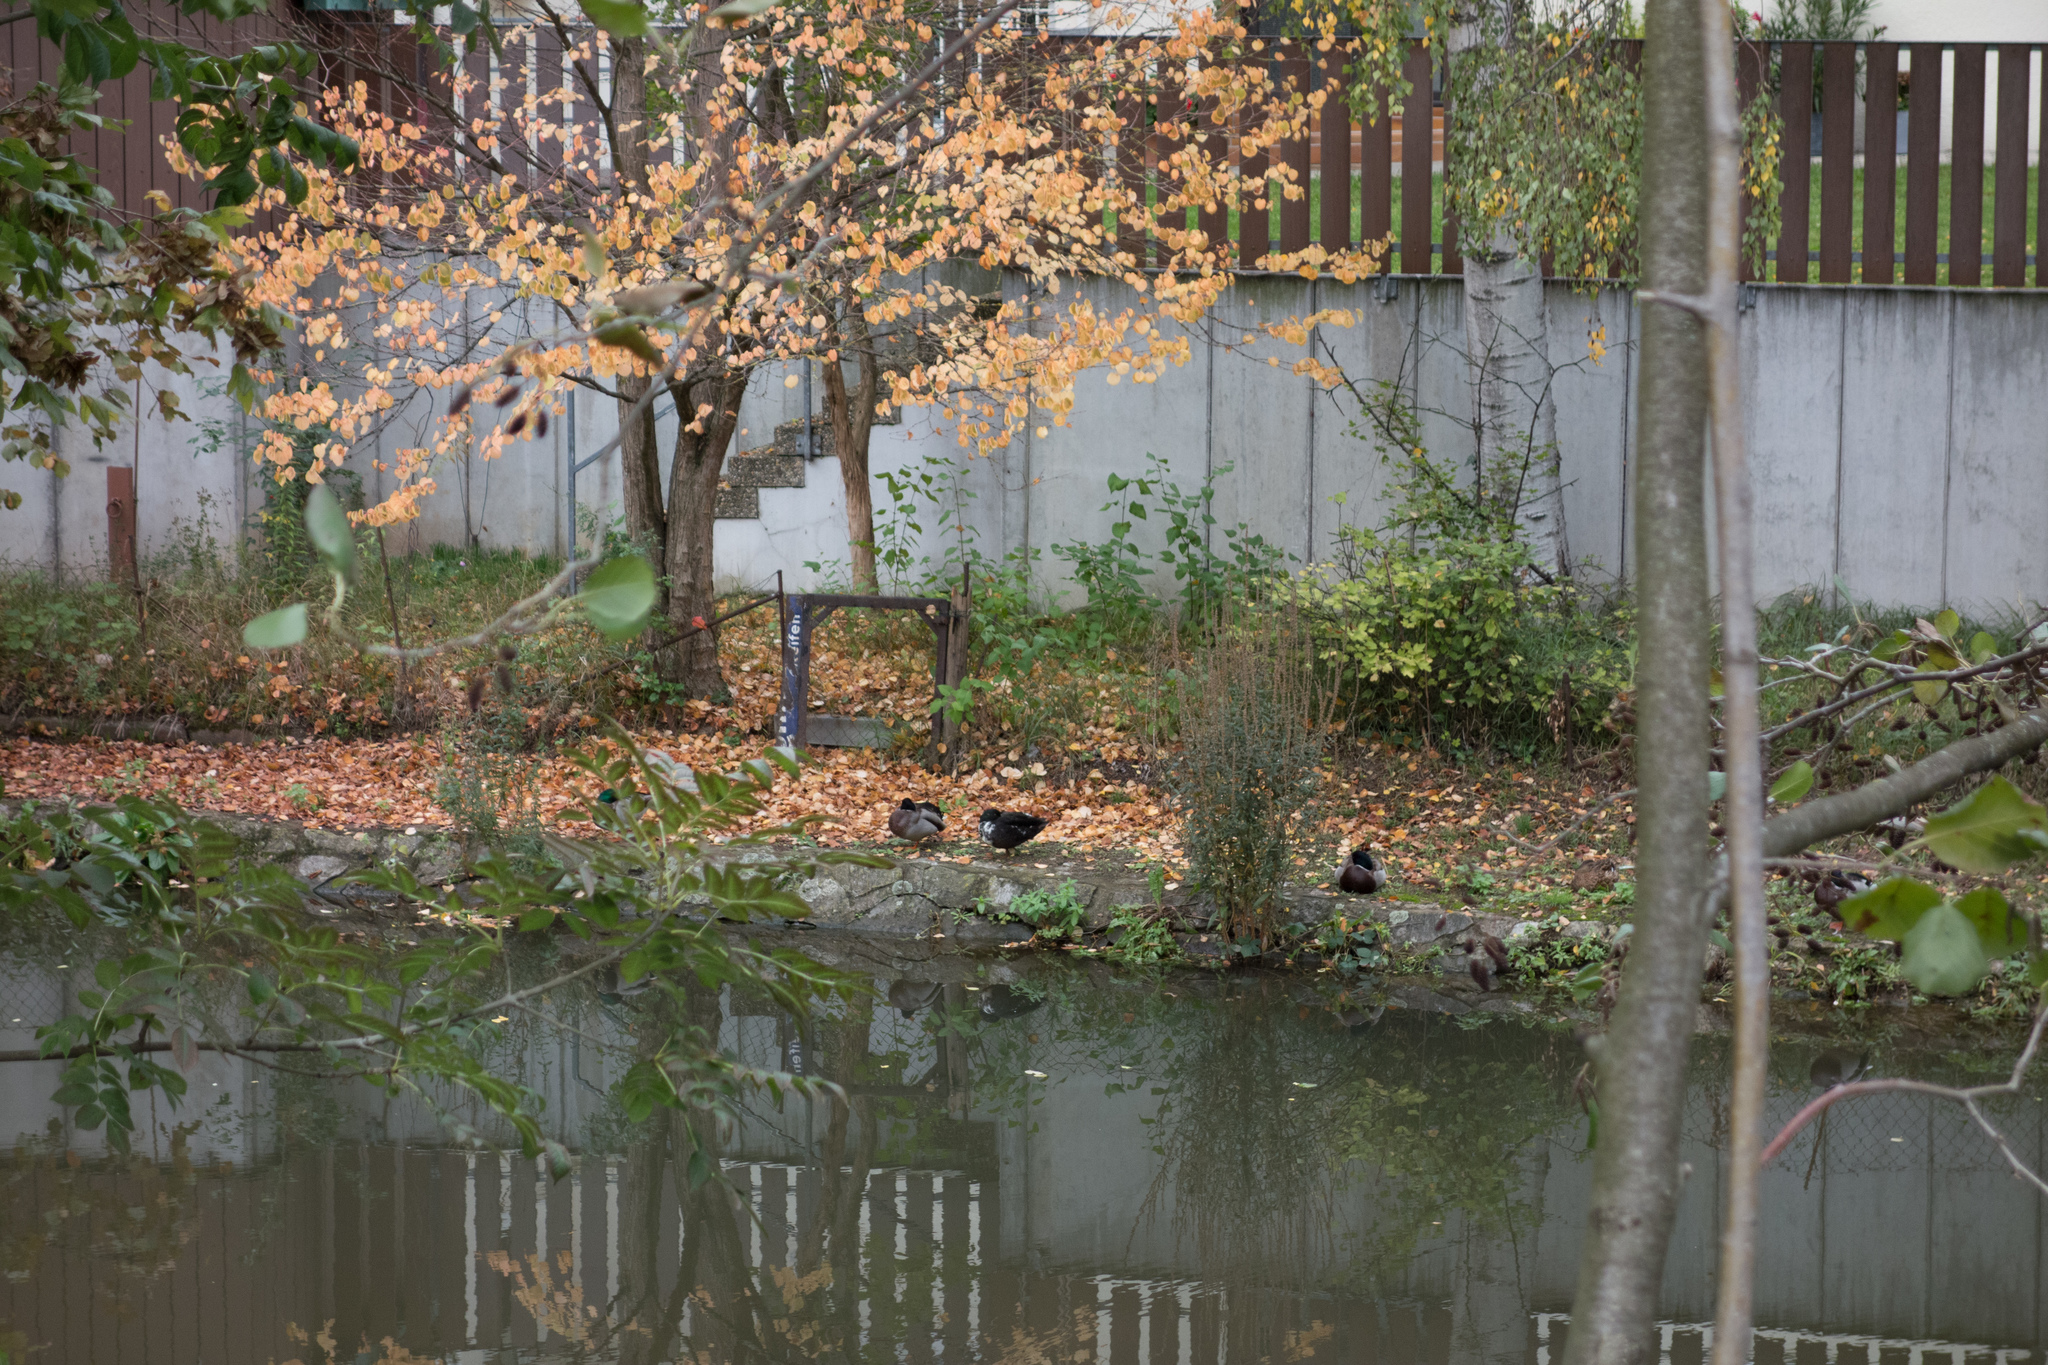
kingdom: Animalia
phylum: Chordata
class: Aves
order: Anseriformes
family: Anatidae
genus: Anas
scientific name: Anas platyrhynchos
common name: Mallard
